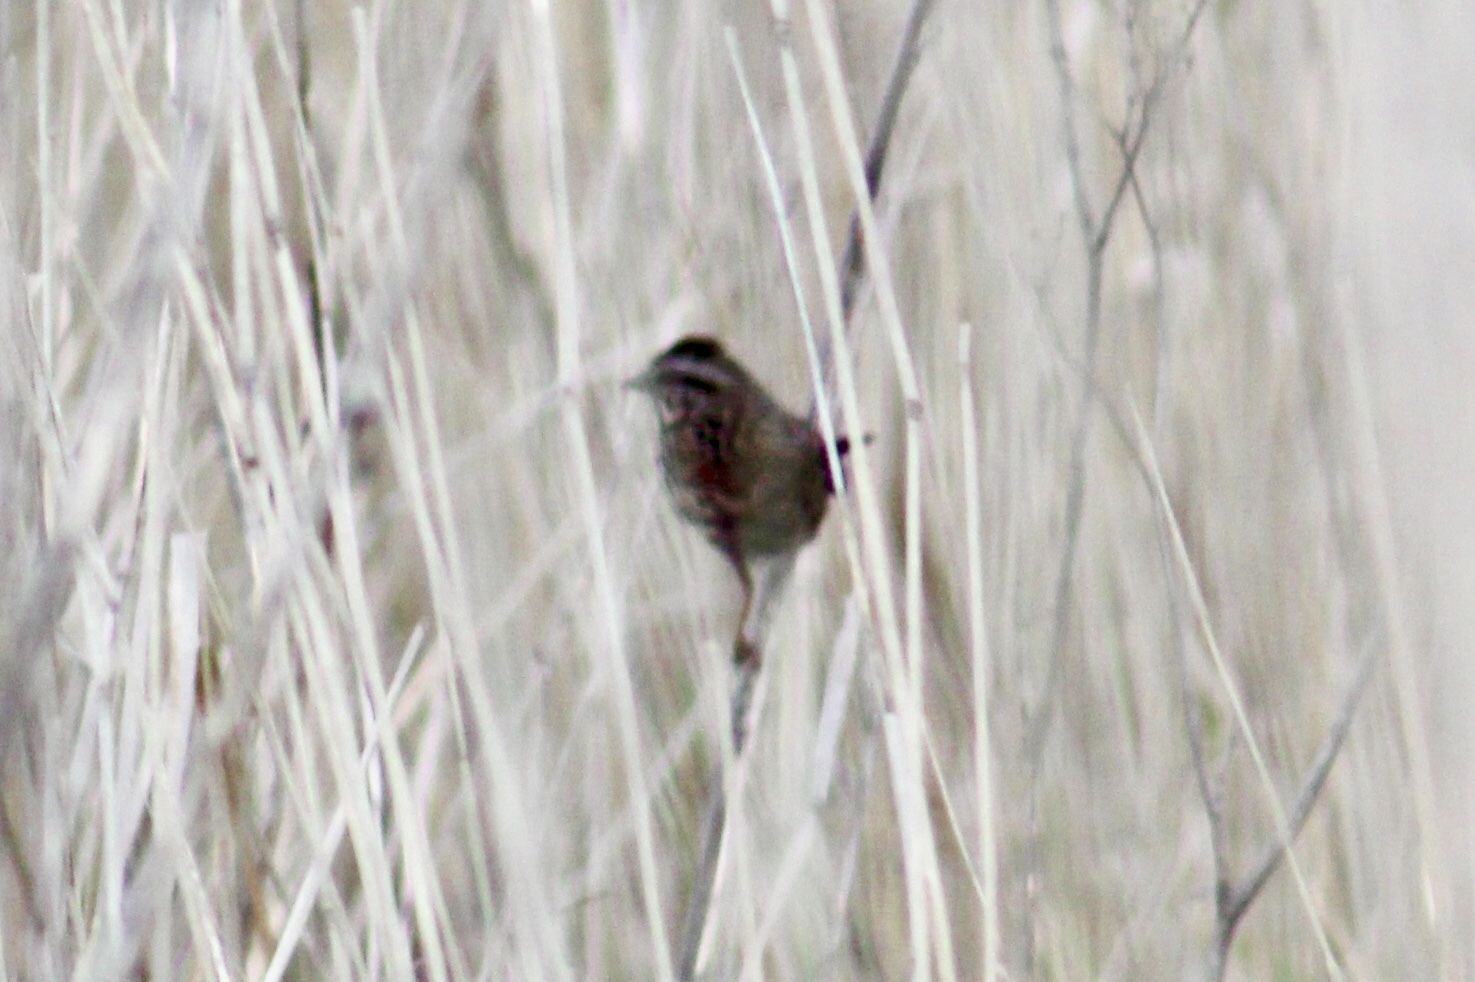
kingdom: Animalia
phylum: Chordata
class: Aves
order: Passeriformes
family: Passerellidae
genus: Melospiza
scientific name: Melospiza melodia
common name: Song sparrow
